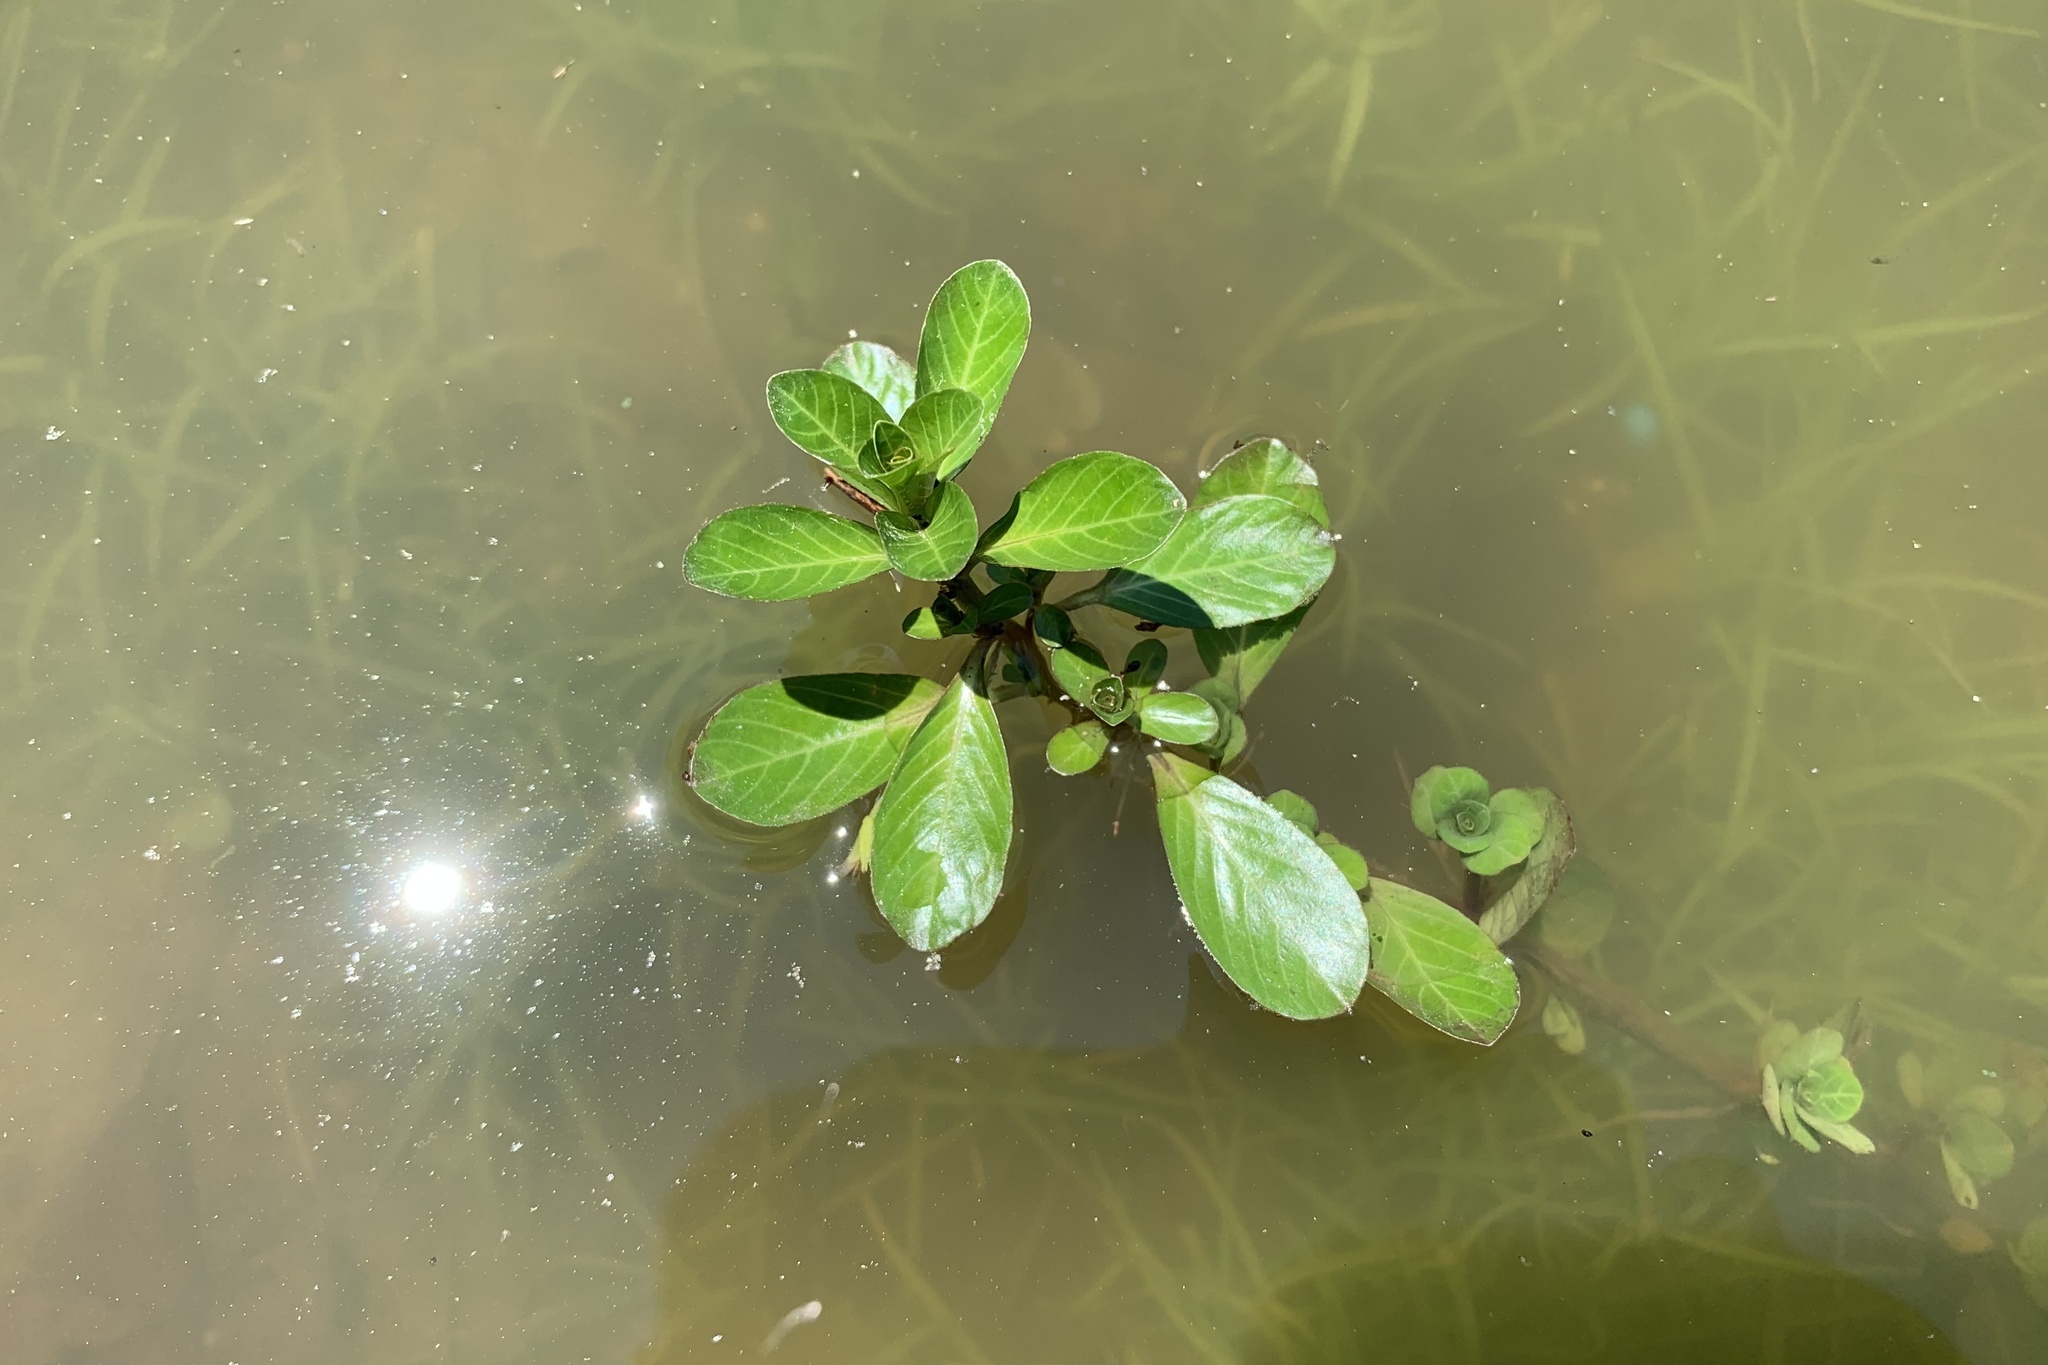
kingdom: Plantae
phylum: Tracheophyta
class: Magnoliopsida
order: Myrtales
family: Onagraceae
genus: Ludwigia
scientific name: Ludwigia adscendens
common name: Creeping water primrose
